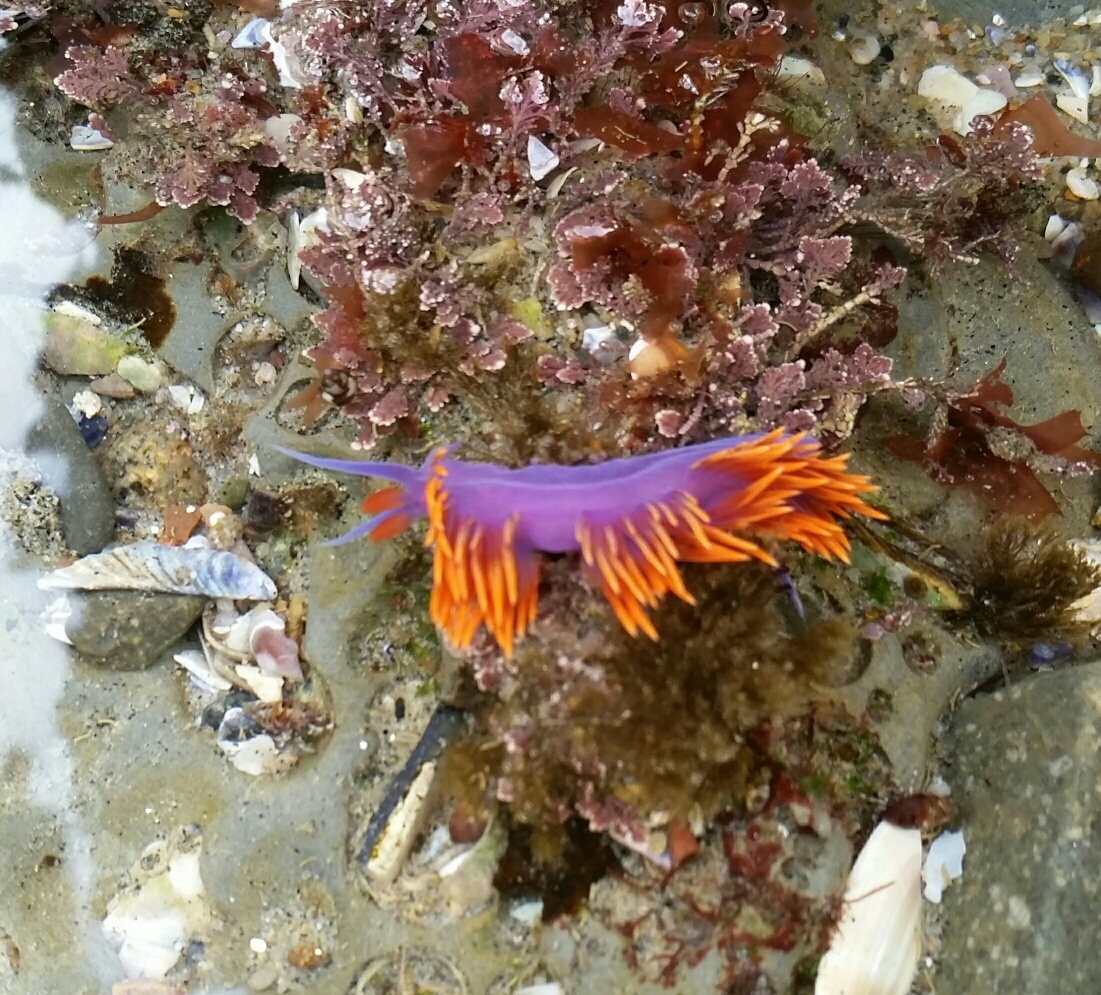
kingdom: Animalia
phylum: Mollusca
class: Gastropoda
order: Nudibranchia
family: Flabellinopsidae
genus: Flabellinopsis
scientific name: Flabellinopsis iodinea
